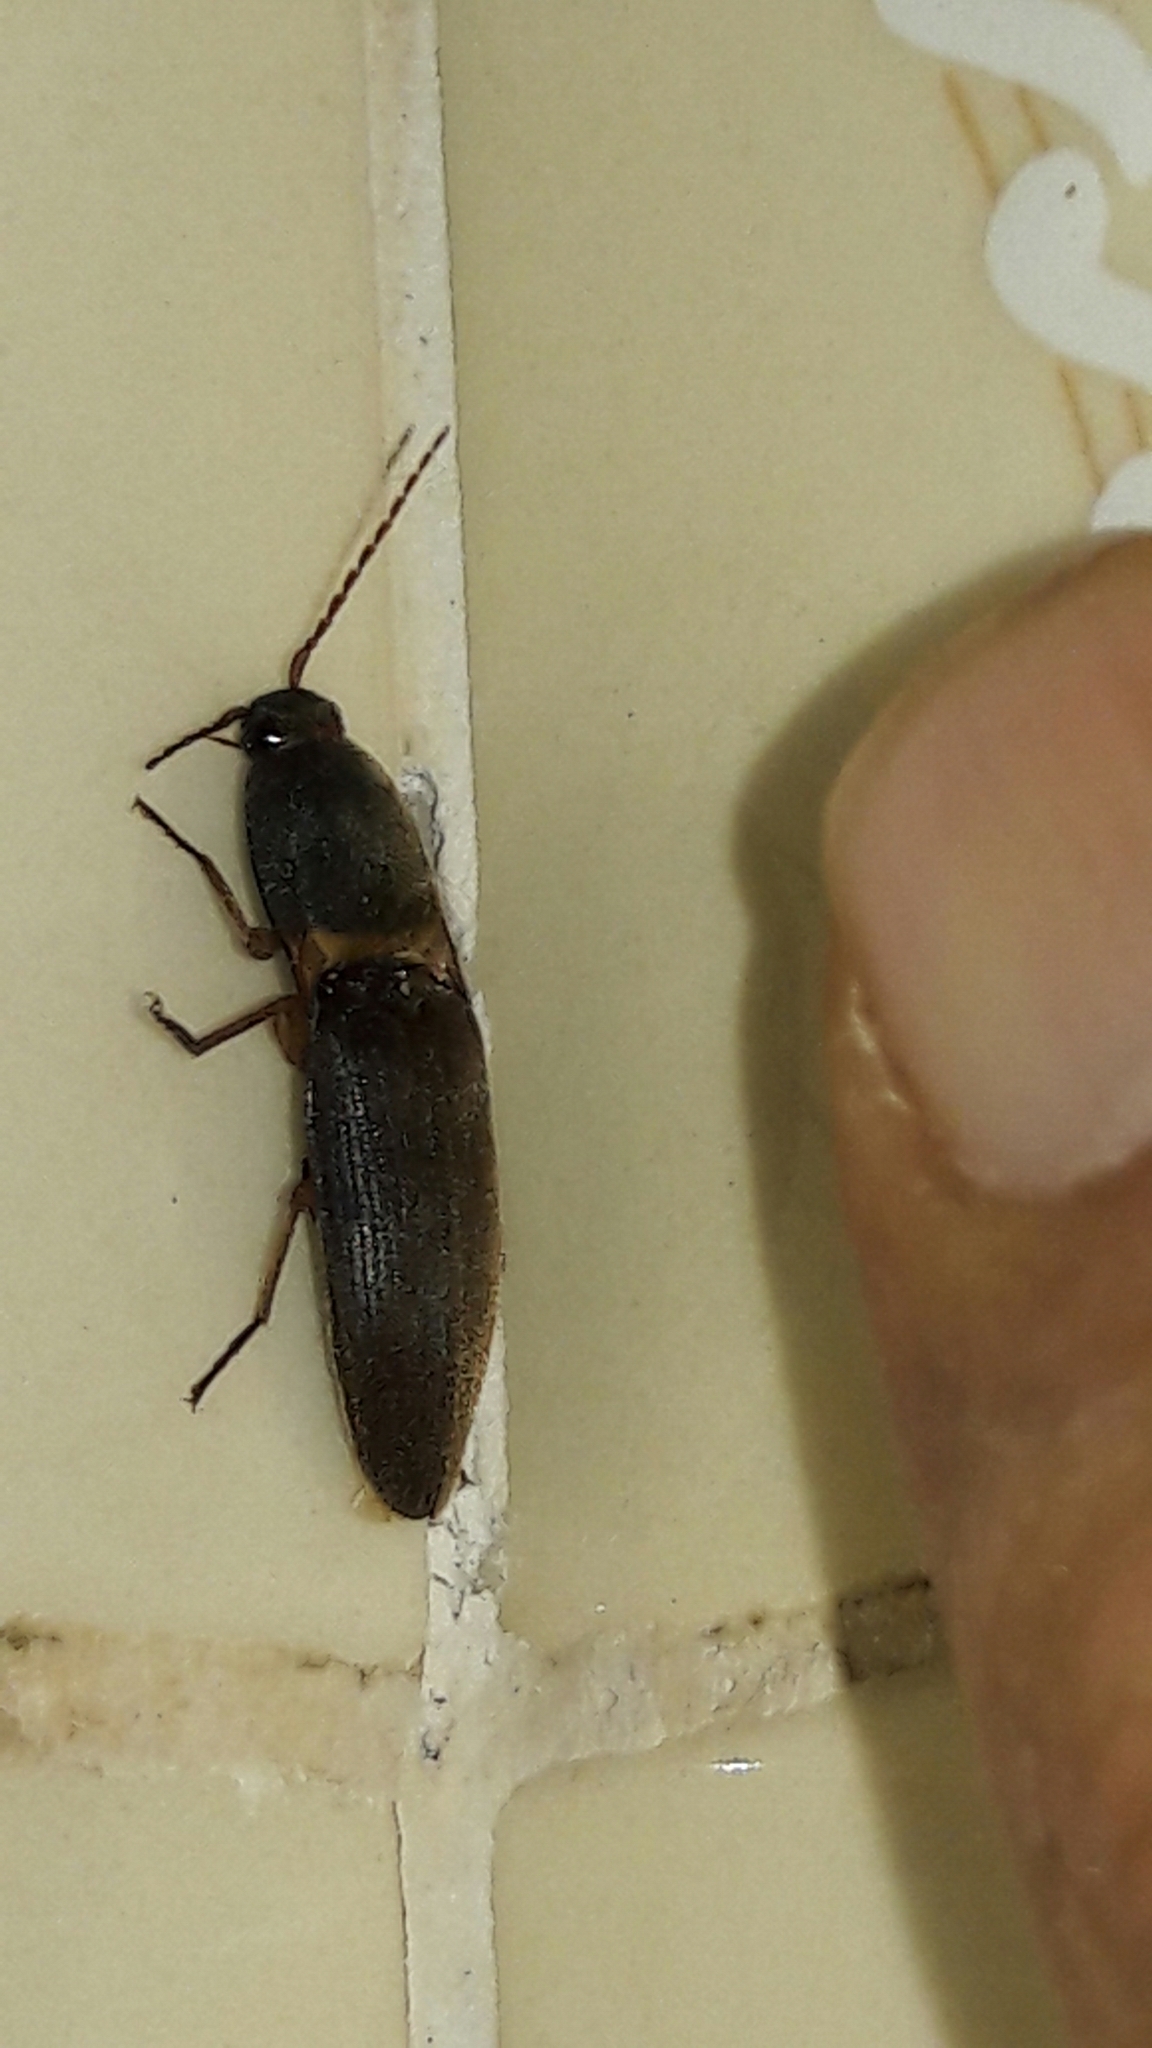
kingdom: Animalia
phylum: Arthropoda
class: Insecta
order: Coleoptera
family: Elateridae
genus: Monocrepidius
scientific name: Monocrepidius
